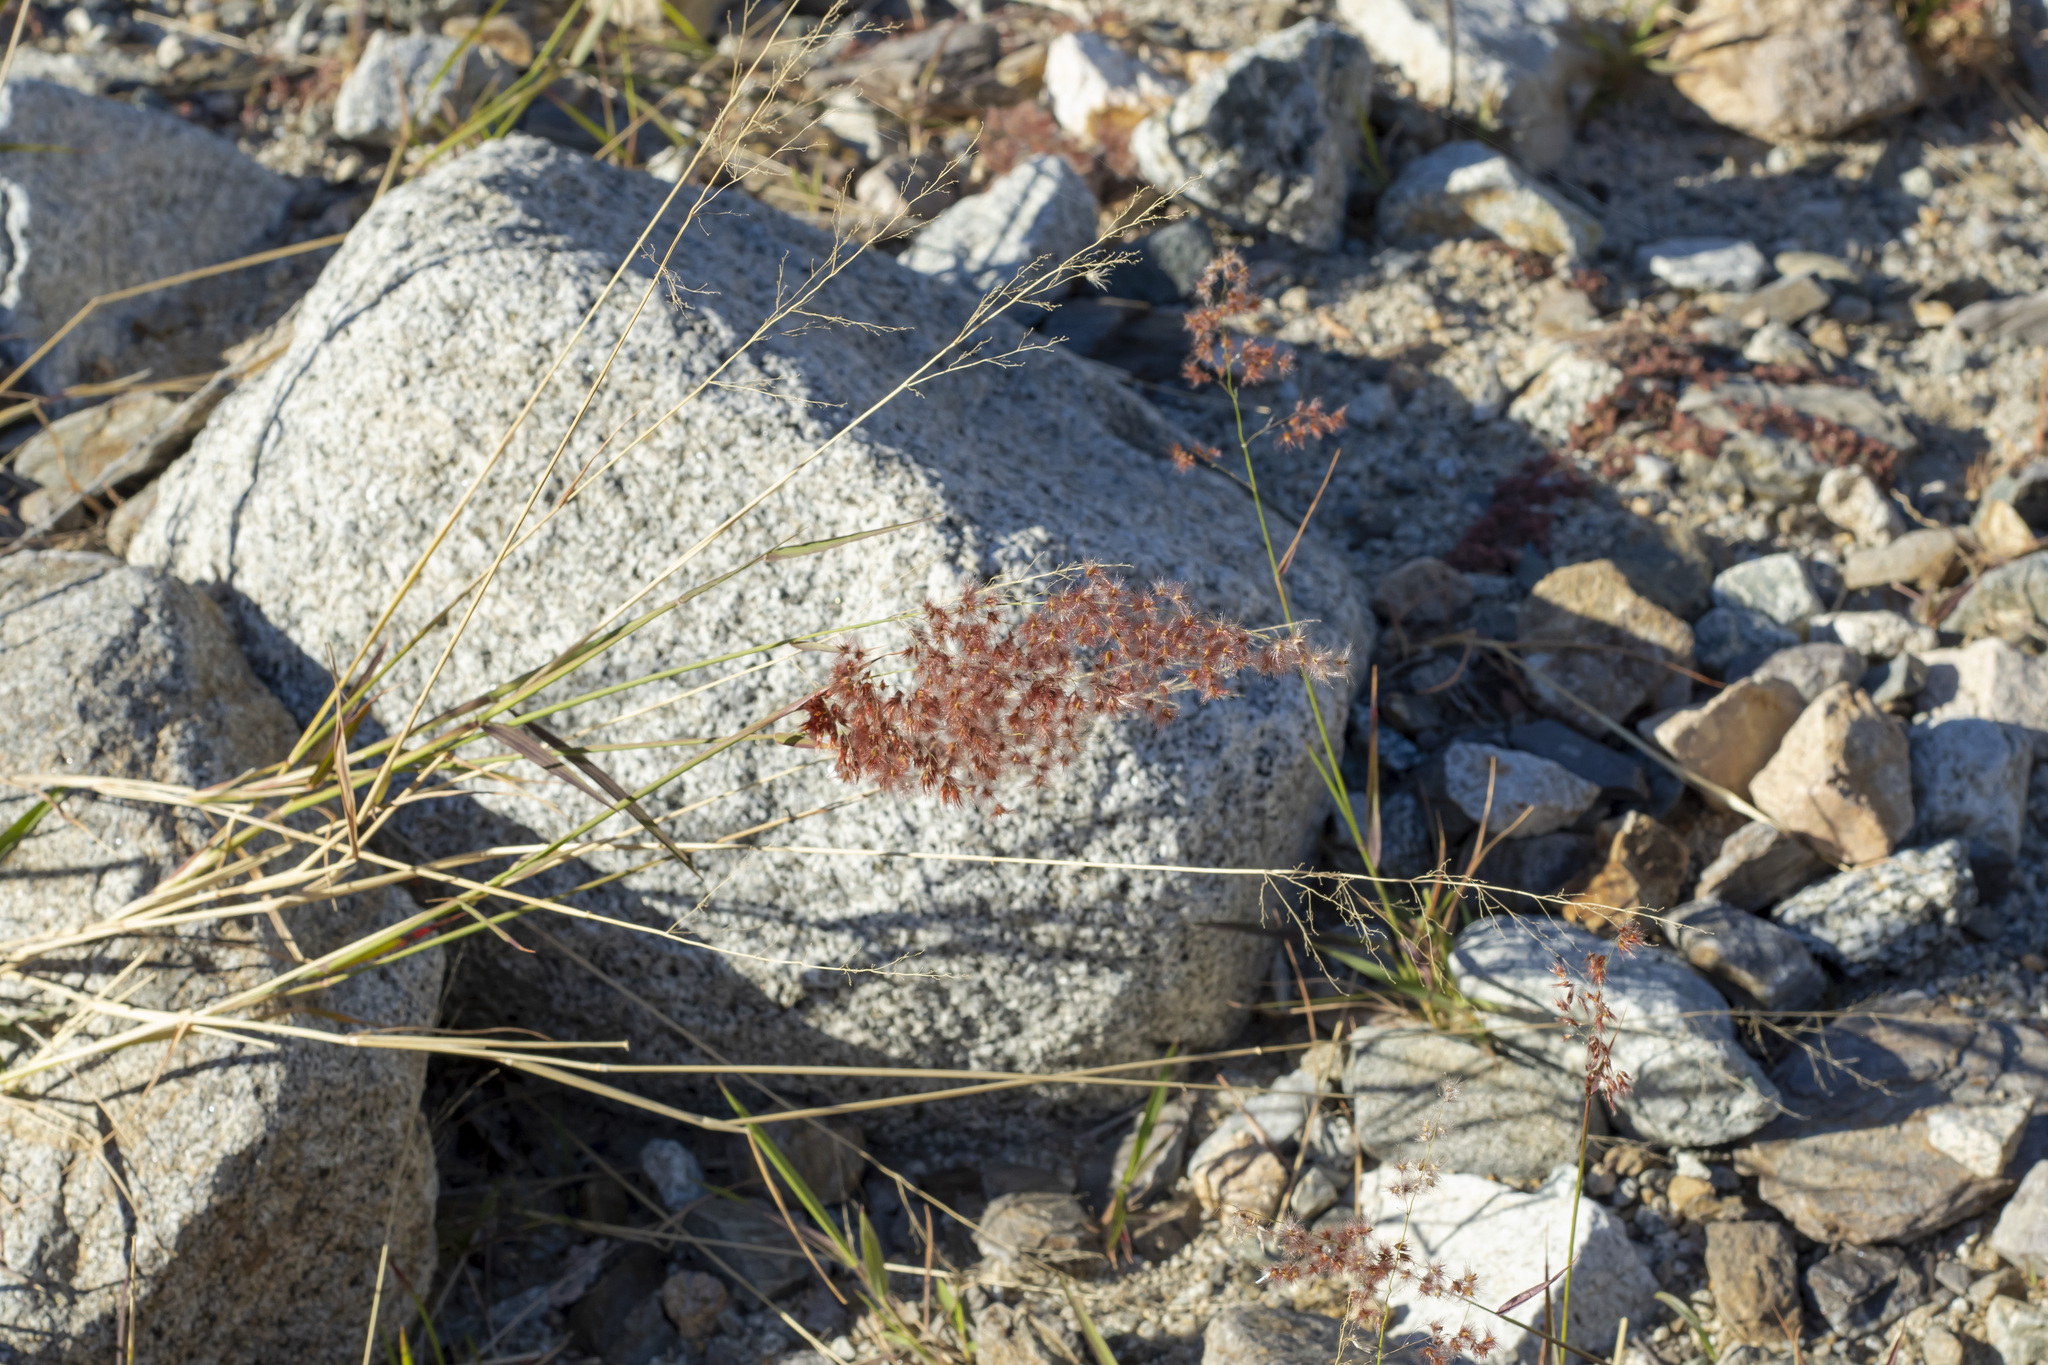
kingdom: Plantae
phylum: Tracheophyta
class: Liliopsida
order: Poales
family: Poaceae
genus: Melinis
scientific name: Melinis repens
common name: Rose natal grass
